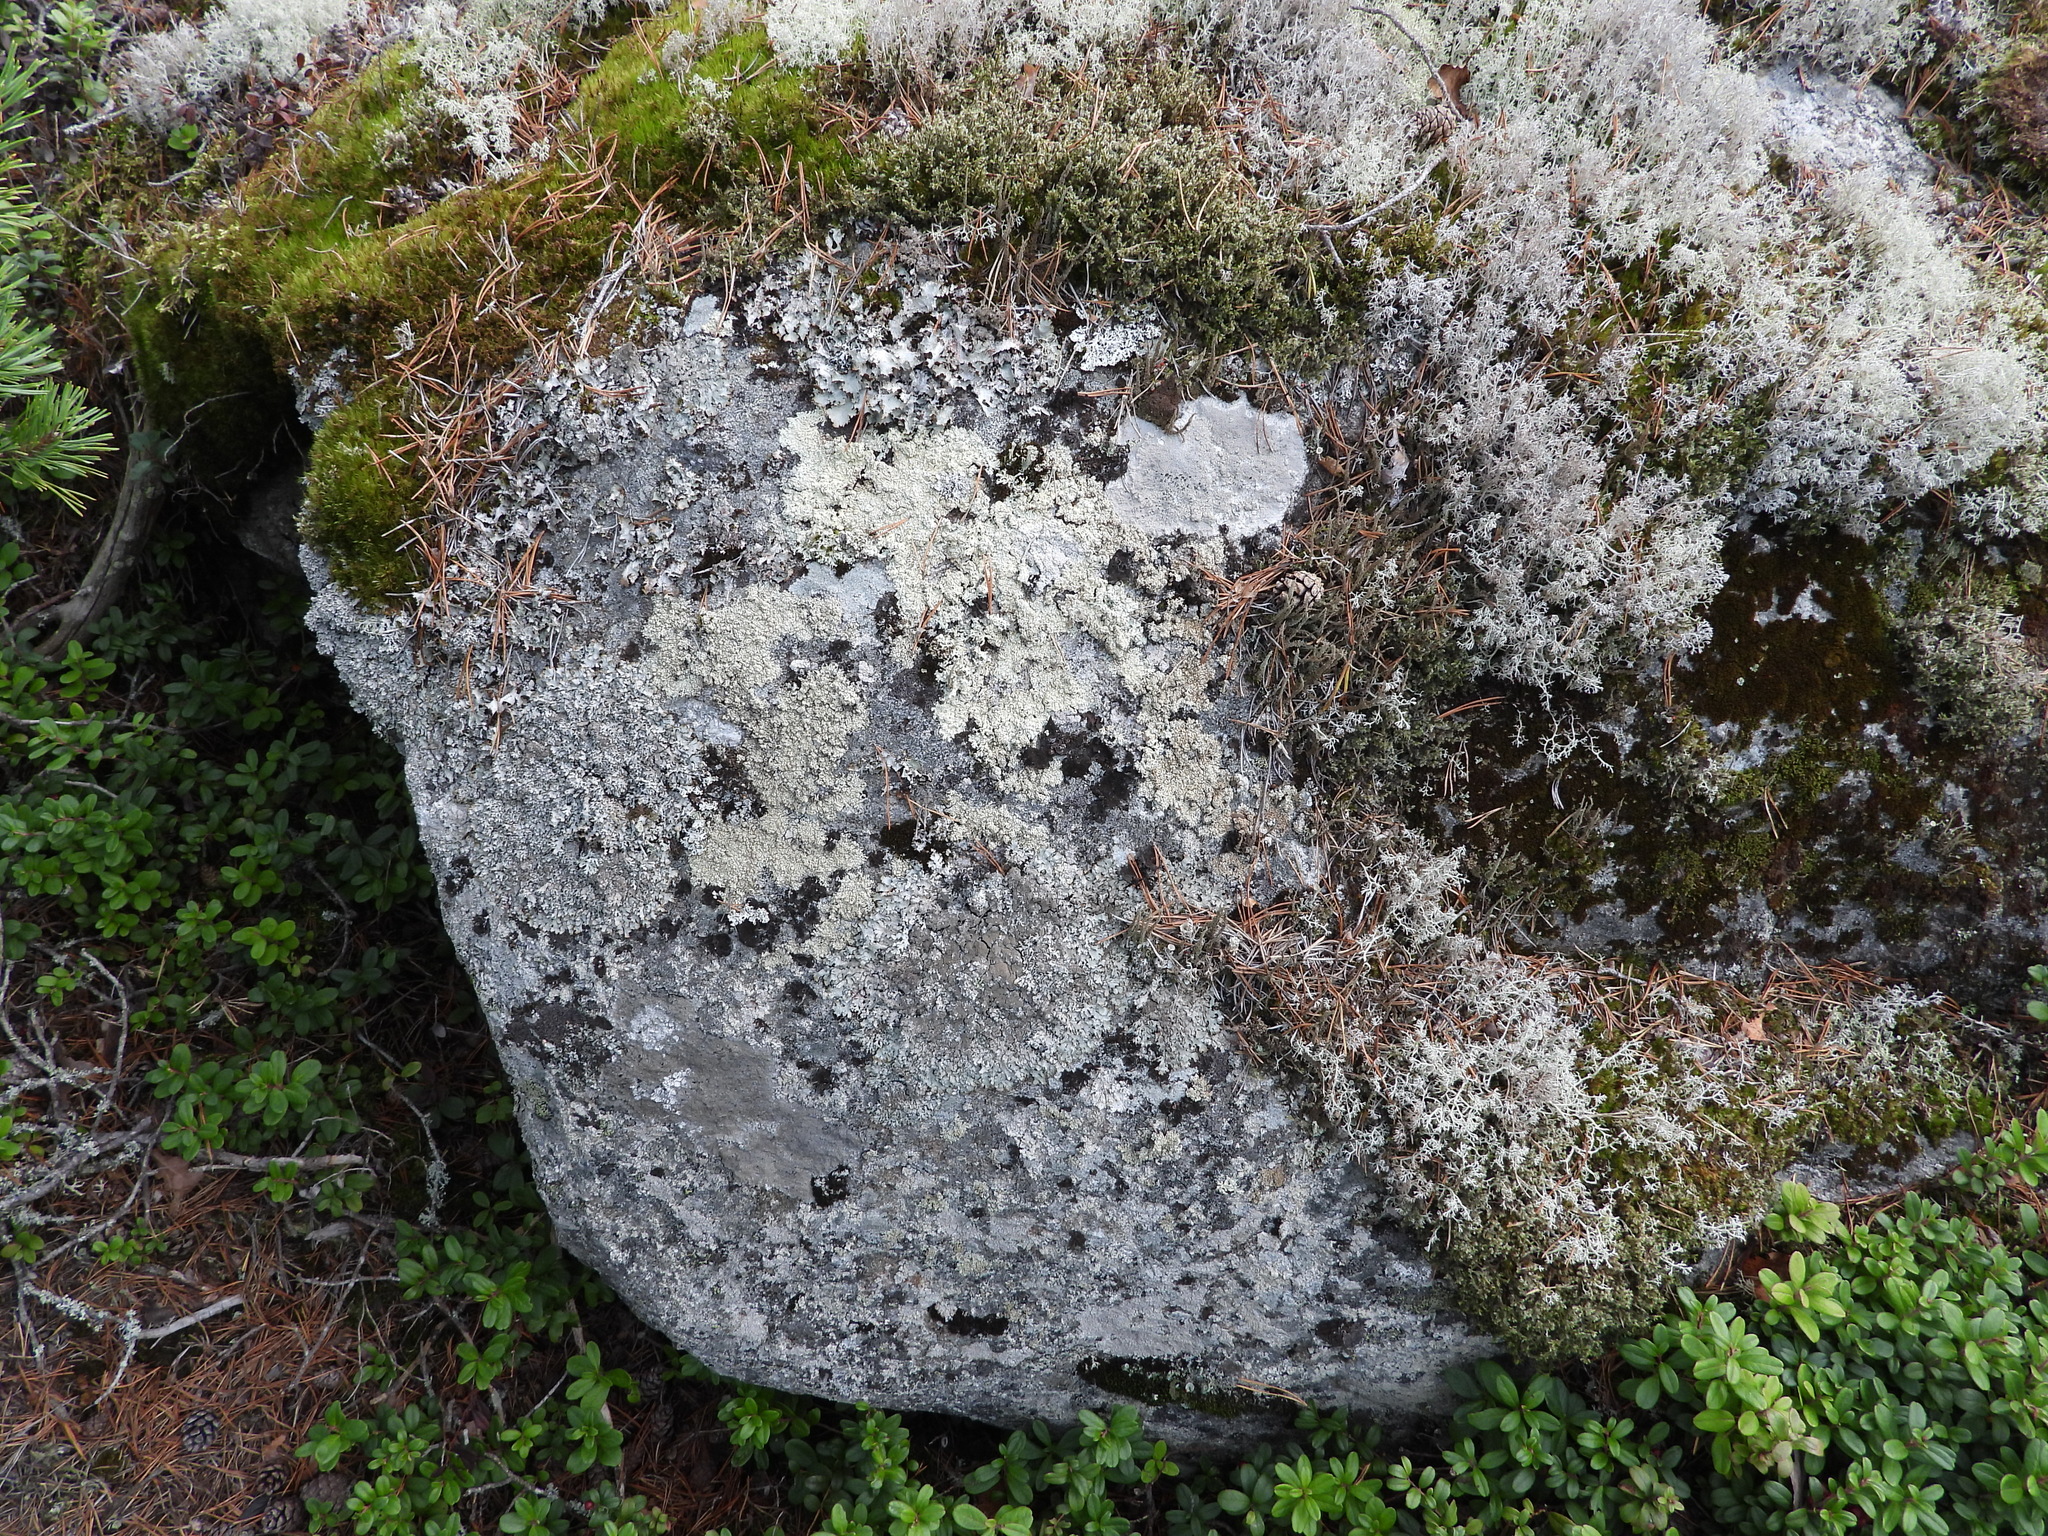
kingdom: Fungi
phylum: Ascomycota
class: Lecanoromycetes
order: Lecanorales
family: Parmeliaceae
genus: Arctoparmelia
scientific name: Arctoparmelia incurva
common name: Bent ring lichen
